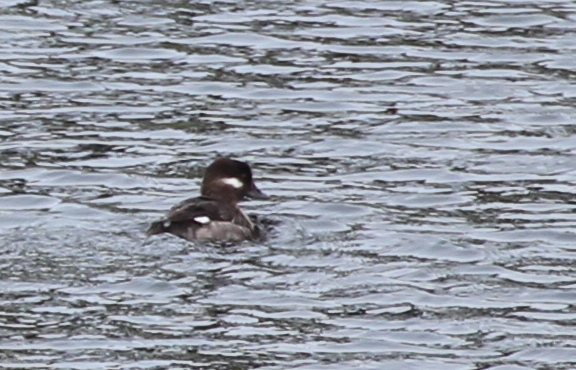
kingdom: Animalia
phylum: Chordata
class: Aves
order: Anseriformes
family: Anatidae
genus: Bucephala
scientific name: Bucephala albeola
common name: Bufflehead
